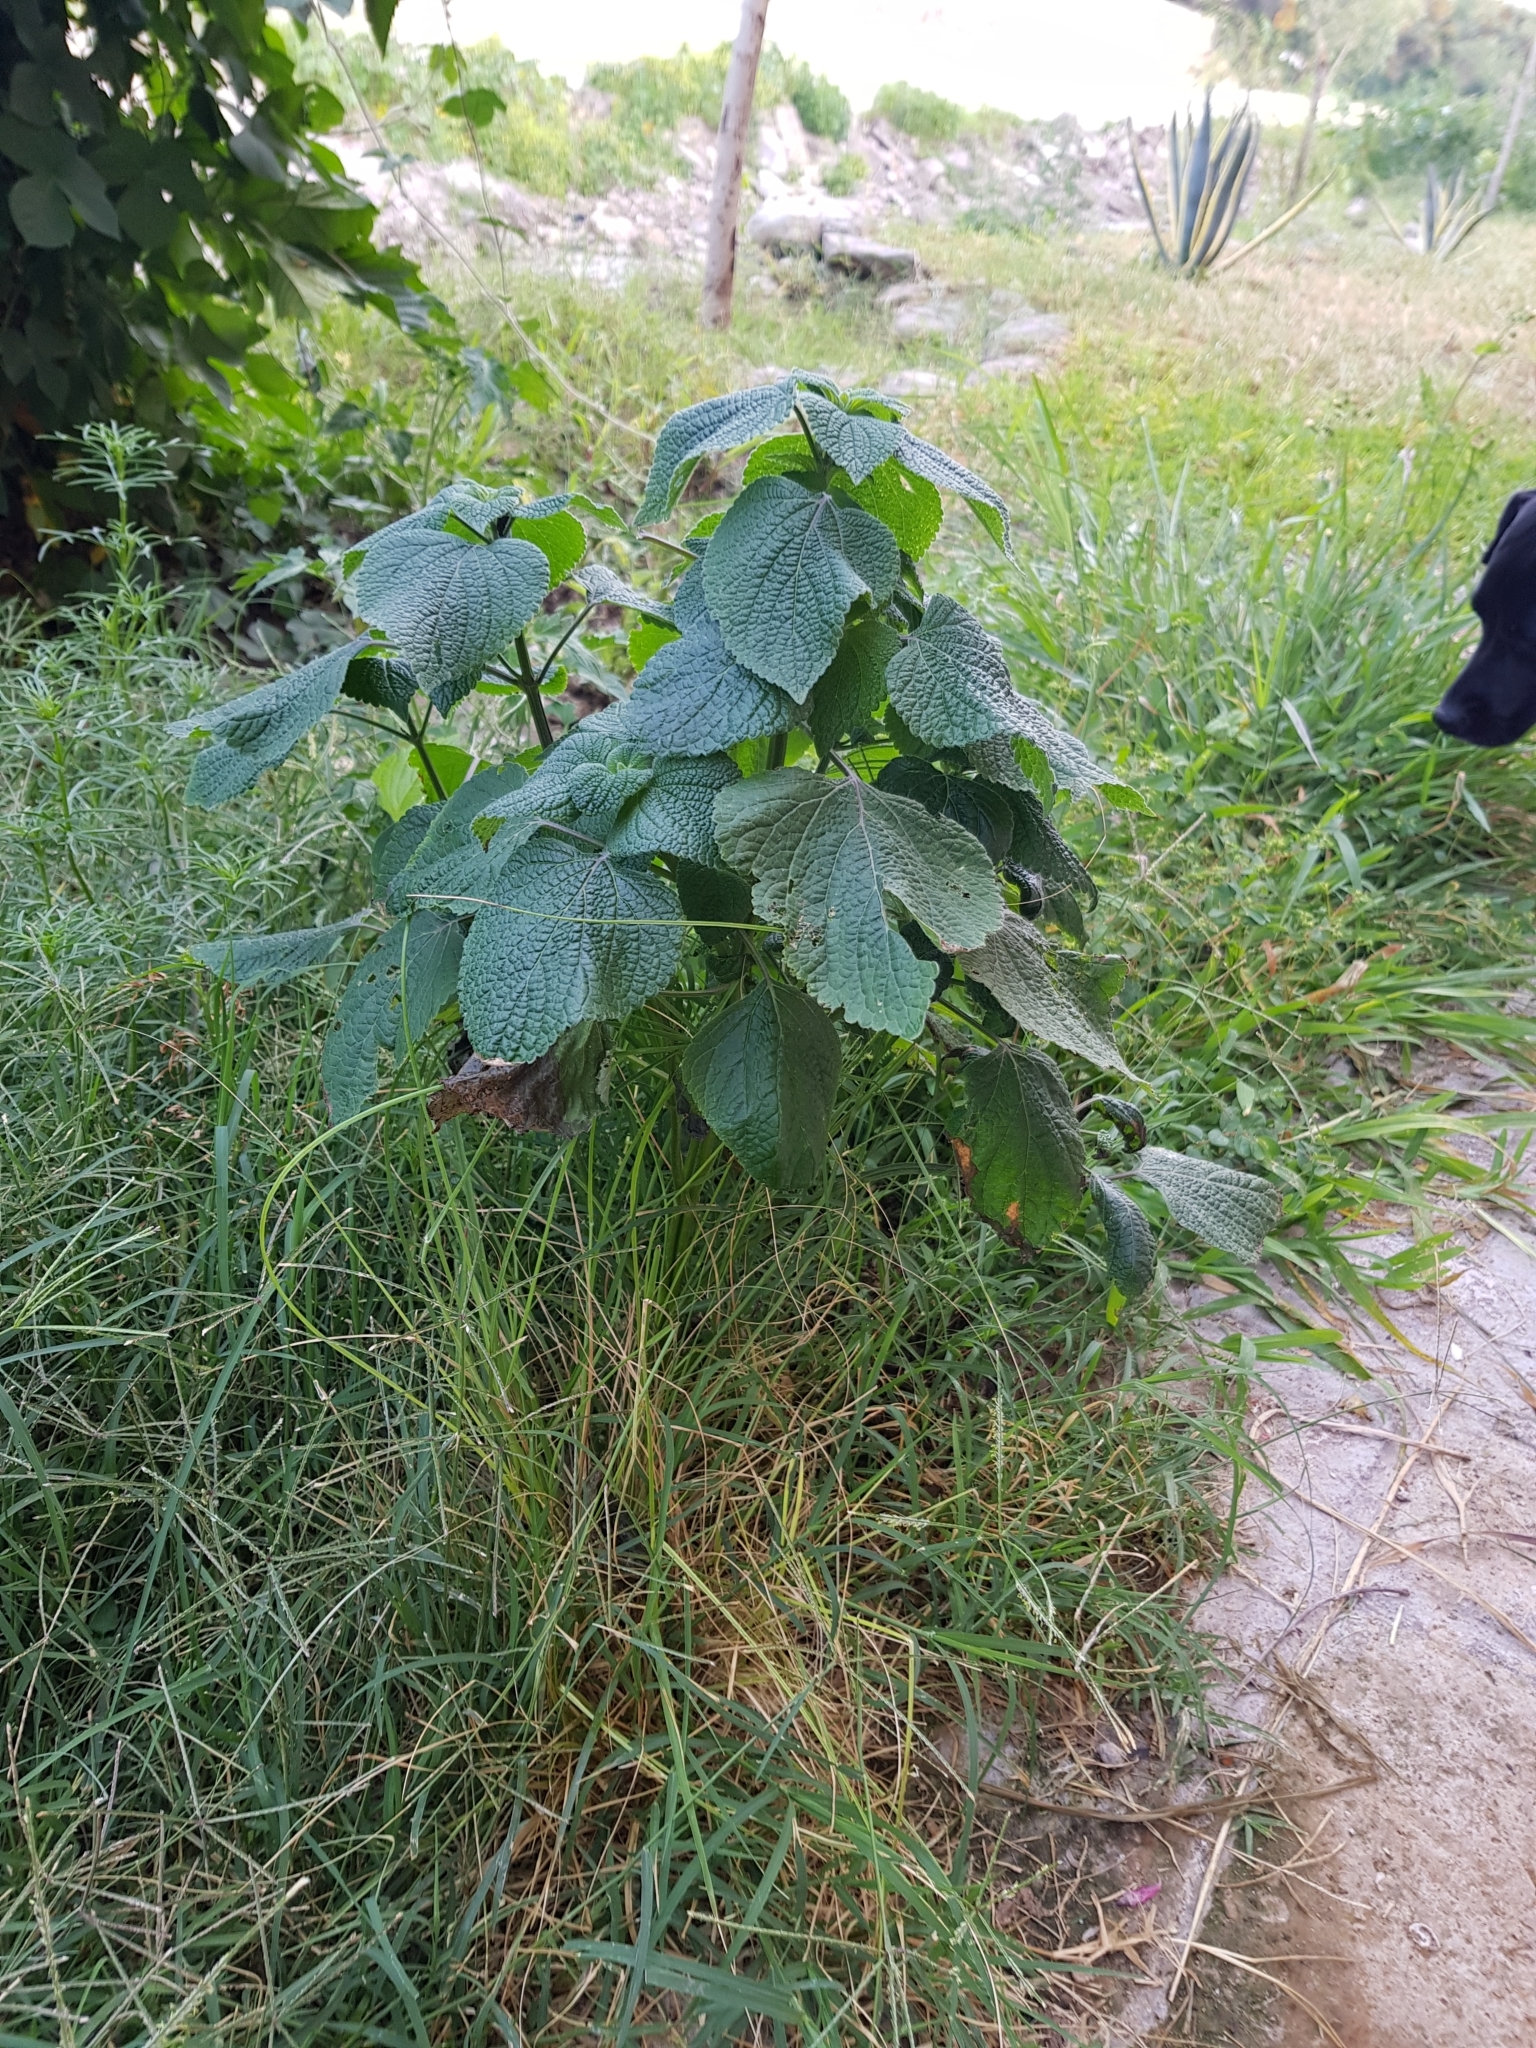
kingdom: Plantae
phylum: Tracheophyta
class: Magnoliopsida
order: Lamiales
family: Lamiaceae
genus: Salvia
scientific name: Salvia tiliifolia
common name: Lindenleaf sage
